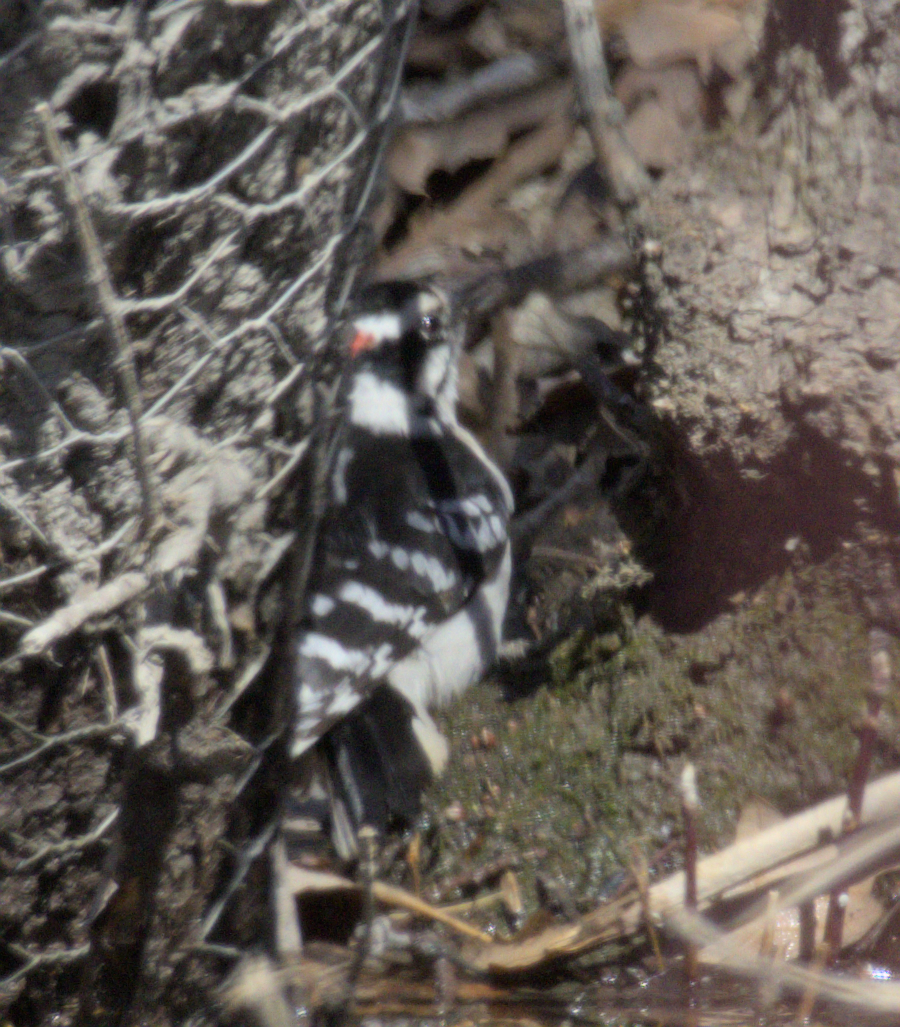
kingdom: Animalia
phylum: Chordata
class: Aves
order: Piciformes
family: Picidae
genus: Dryobates
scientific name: Dryobates pubescens
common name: Downy woodpecker
